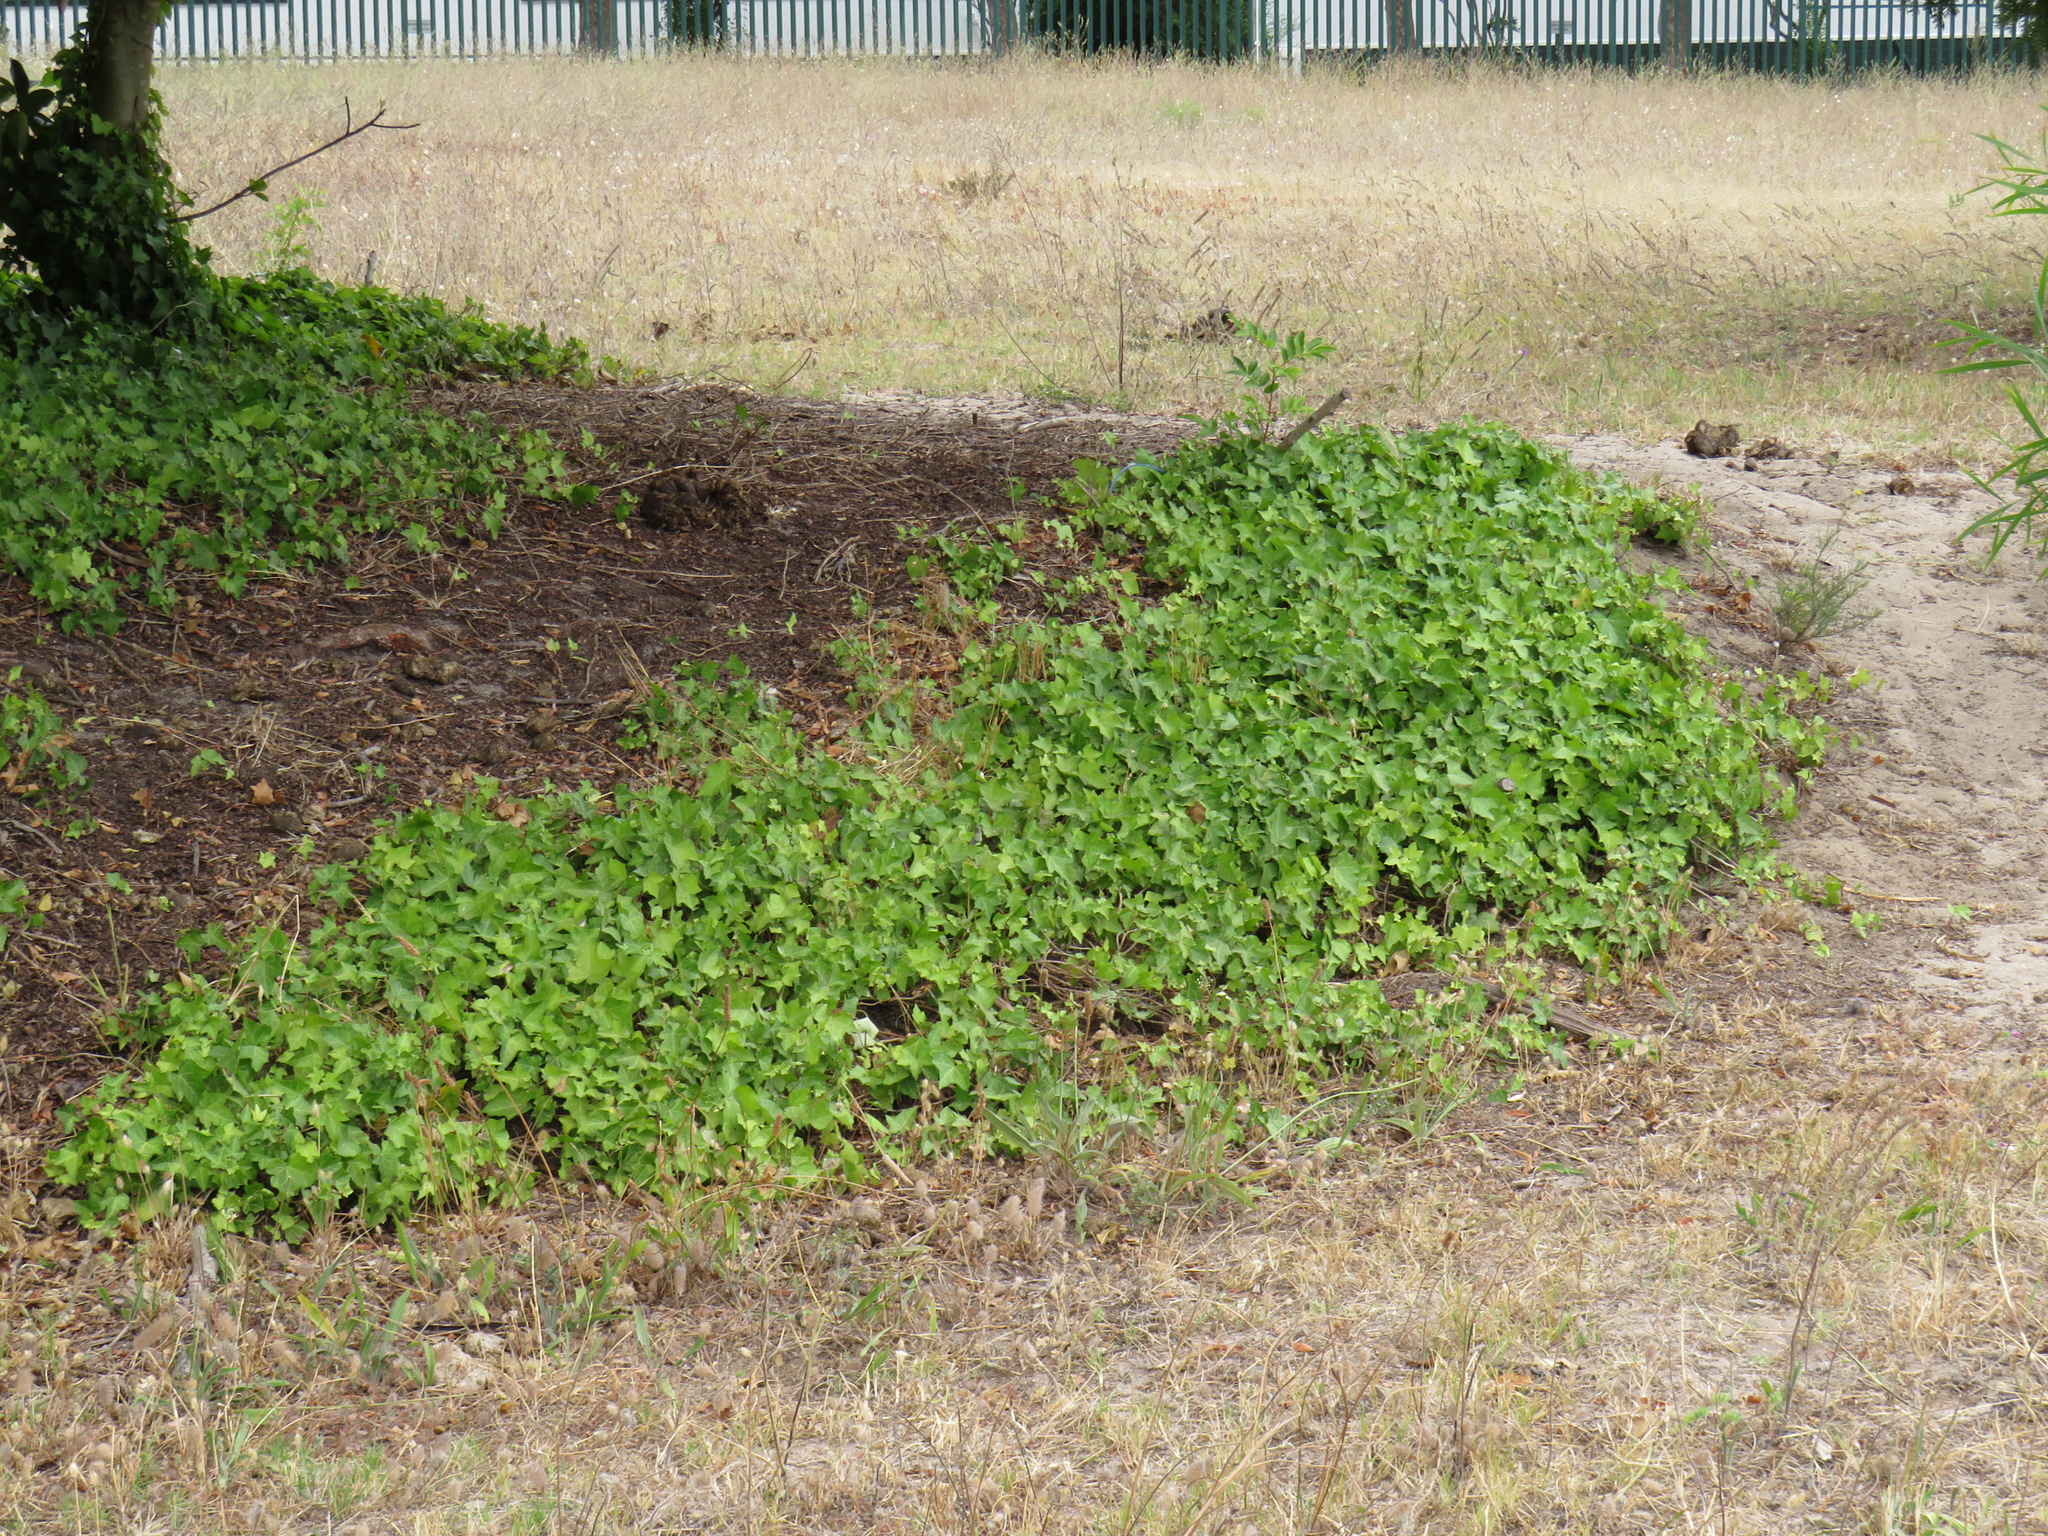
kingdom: Plantae
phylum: Tracheophyta
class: Magnoliopsida
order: Apiales
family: Araliaceae
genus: Hedera
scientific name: Hedera helix
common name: Ivy
